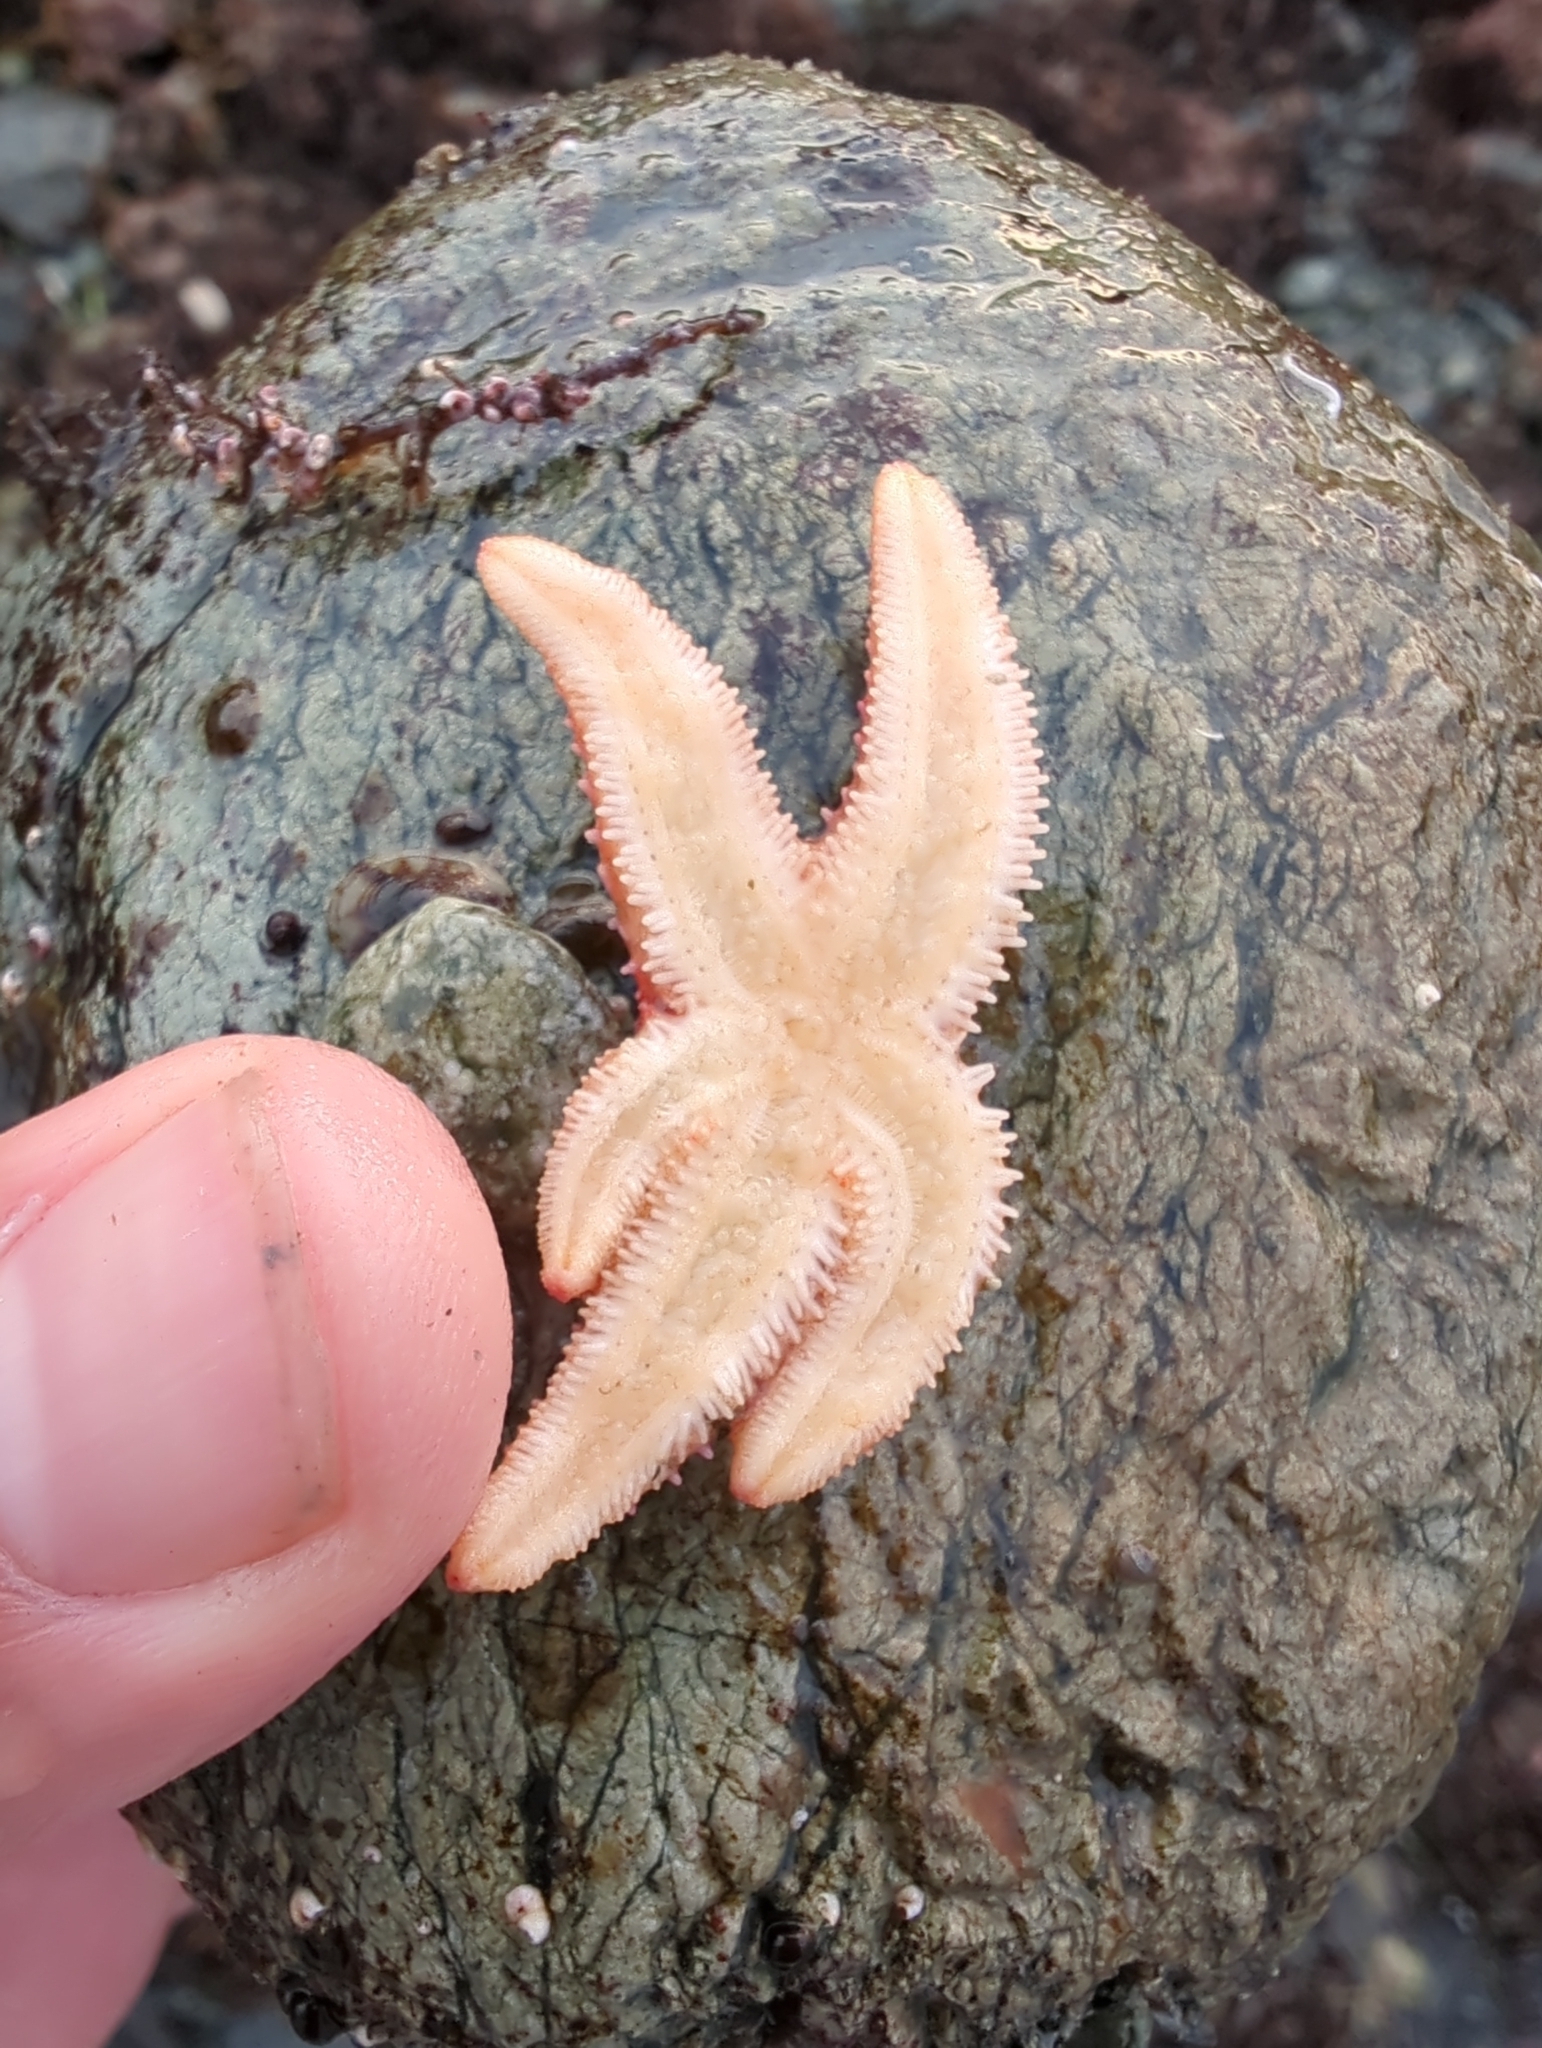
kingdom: Animalia
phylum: Echinodermata
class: Asteroidea
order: Forcipulatida
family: Asteriidae
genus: Orthasterias
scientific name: Orthasterias koehleri
